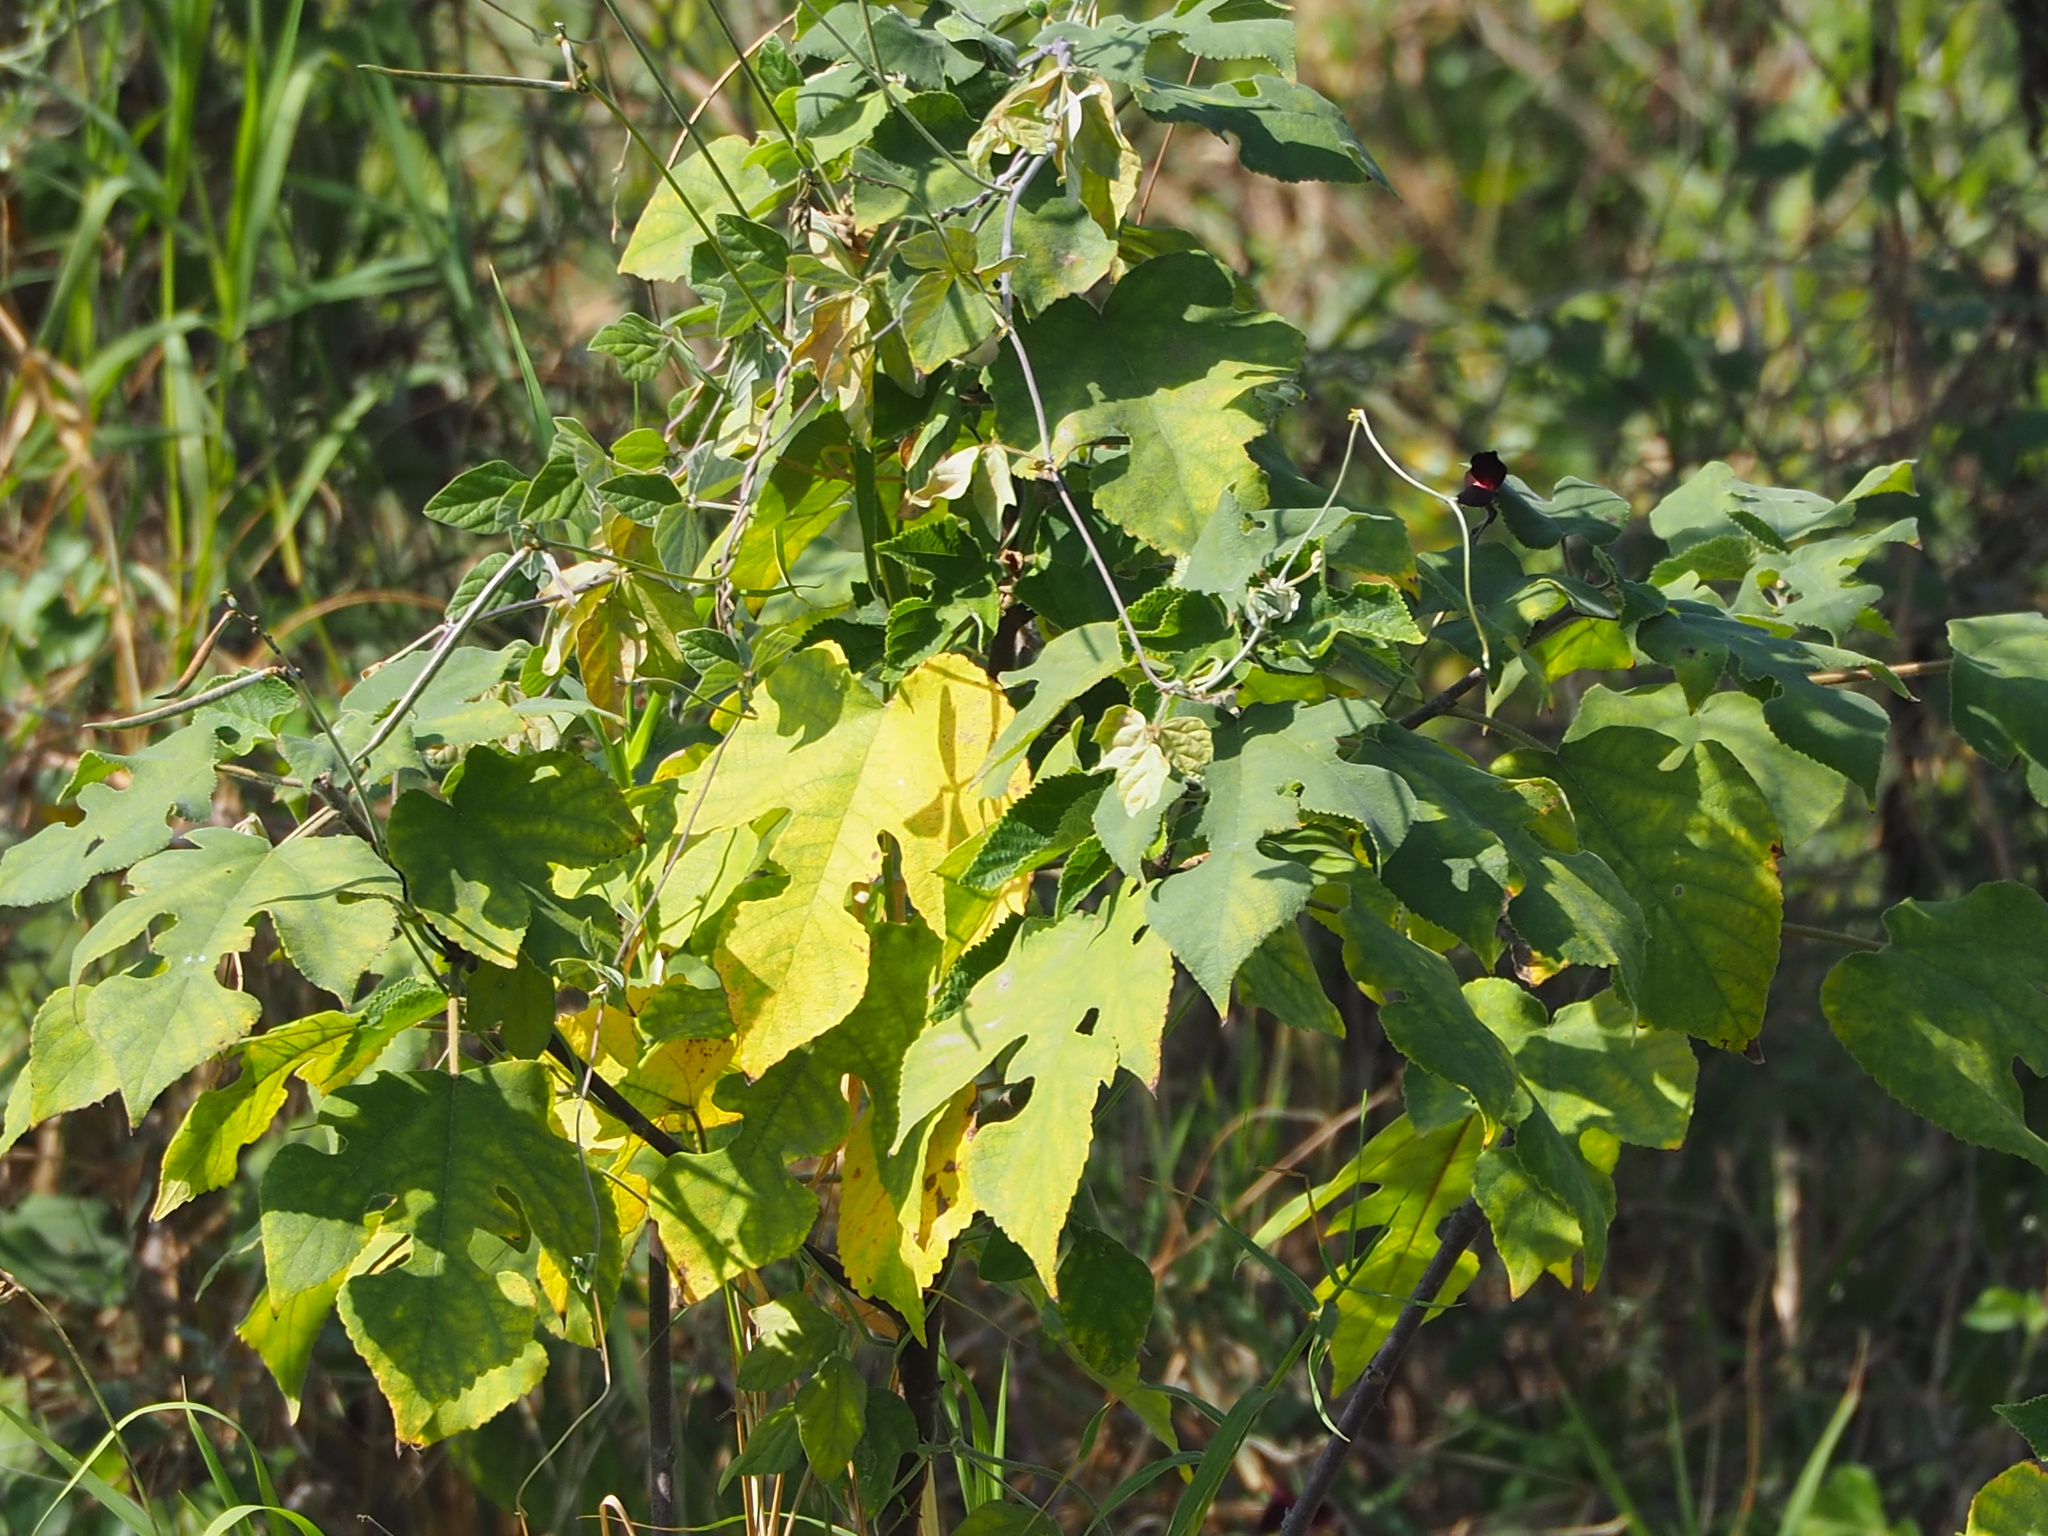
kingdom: Plantae
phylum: Tracheophyta
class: Magnoliopsida
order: Rosales
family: Moraceae
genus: Broussonetia
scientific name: Broussonetia papyrifera
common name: Paper mulberry
